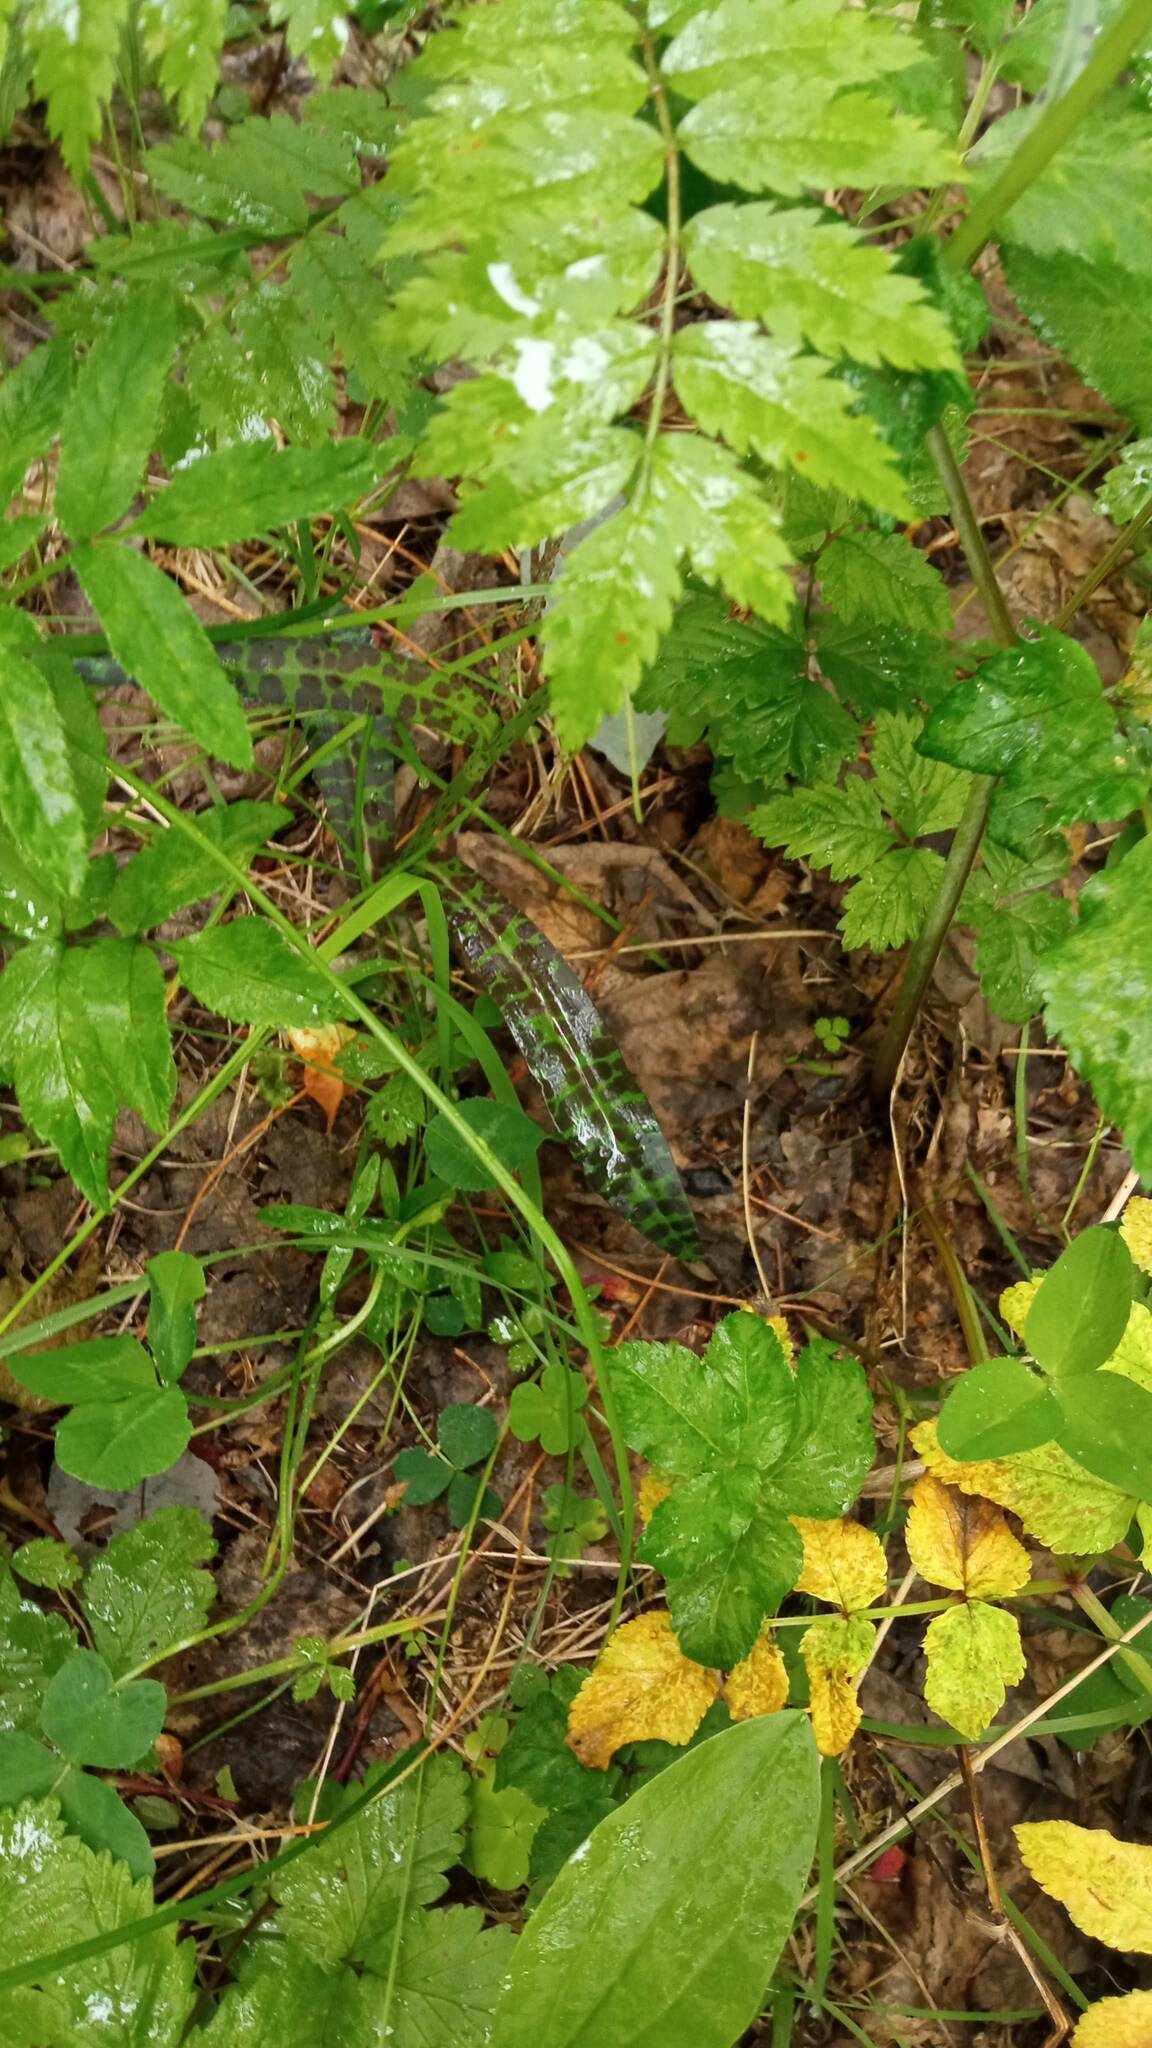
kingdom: Plantae
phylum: Tracheophyta
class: Liliopsida
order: Asparagales
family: Orchidaceae
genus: Dactylorhiza
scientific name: Dactylorhiza maculata
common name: Heath spotted-orchid
